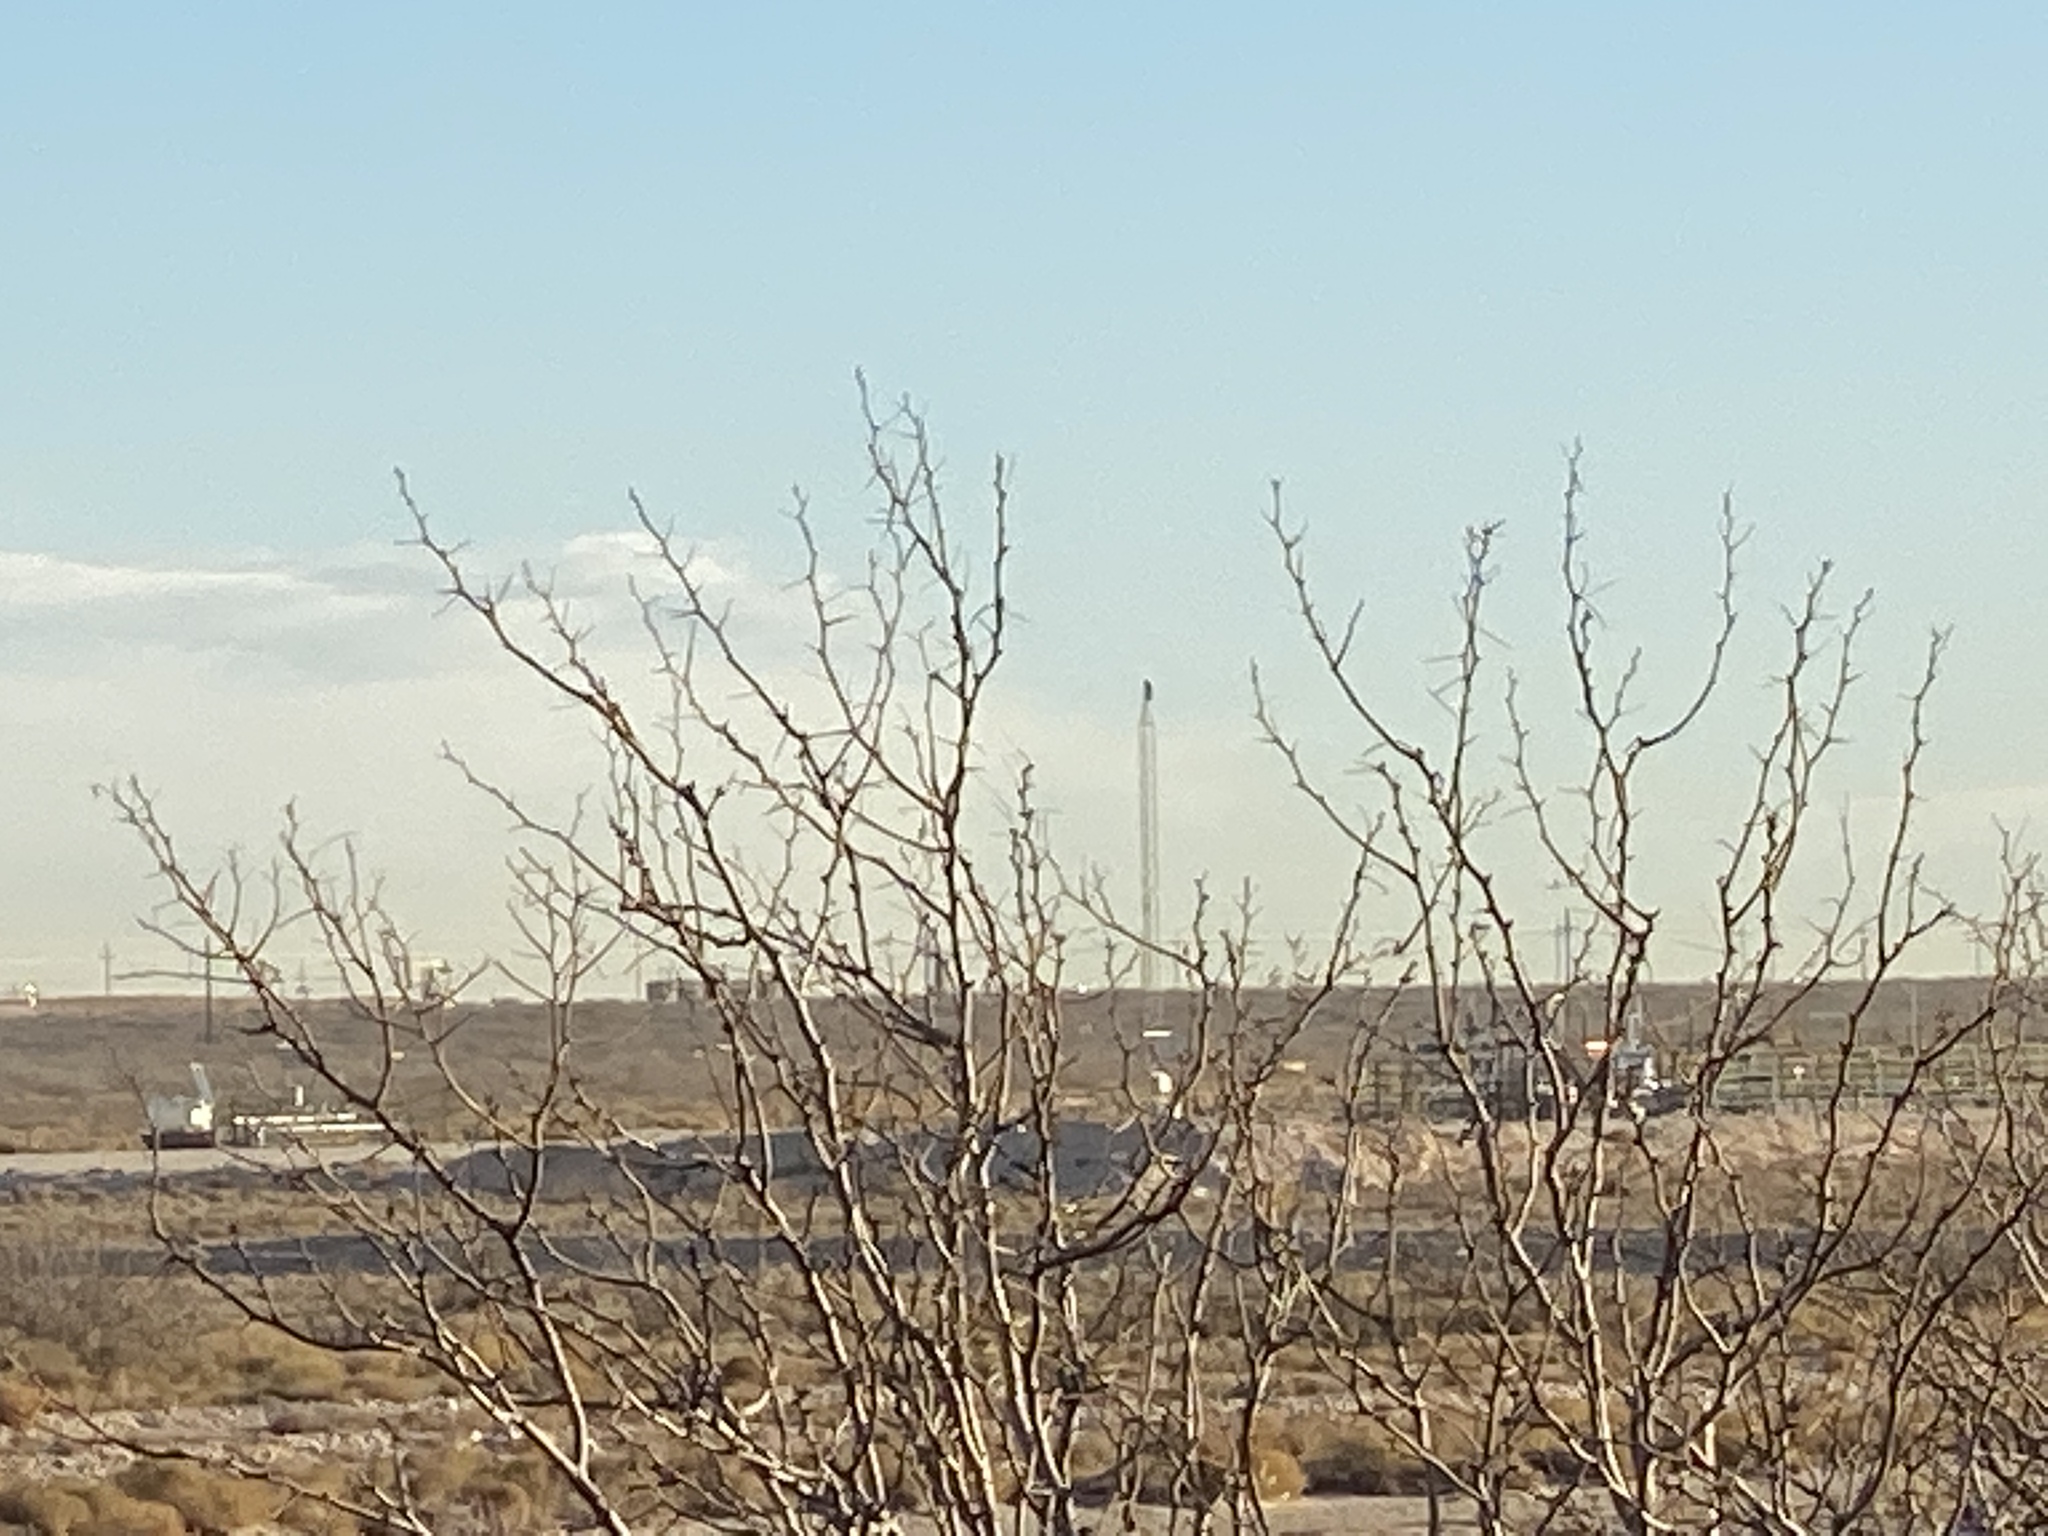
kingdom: Plantae
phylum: Tracheophyta
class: Magnoliopsida
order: Fabales
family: Fabaceae
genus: Prosopis
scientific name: Prosopis glandulosa
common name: Honey mesquite
